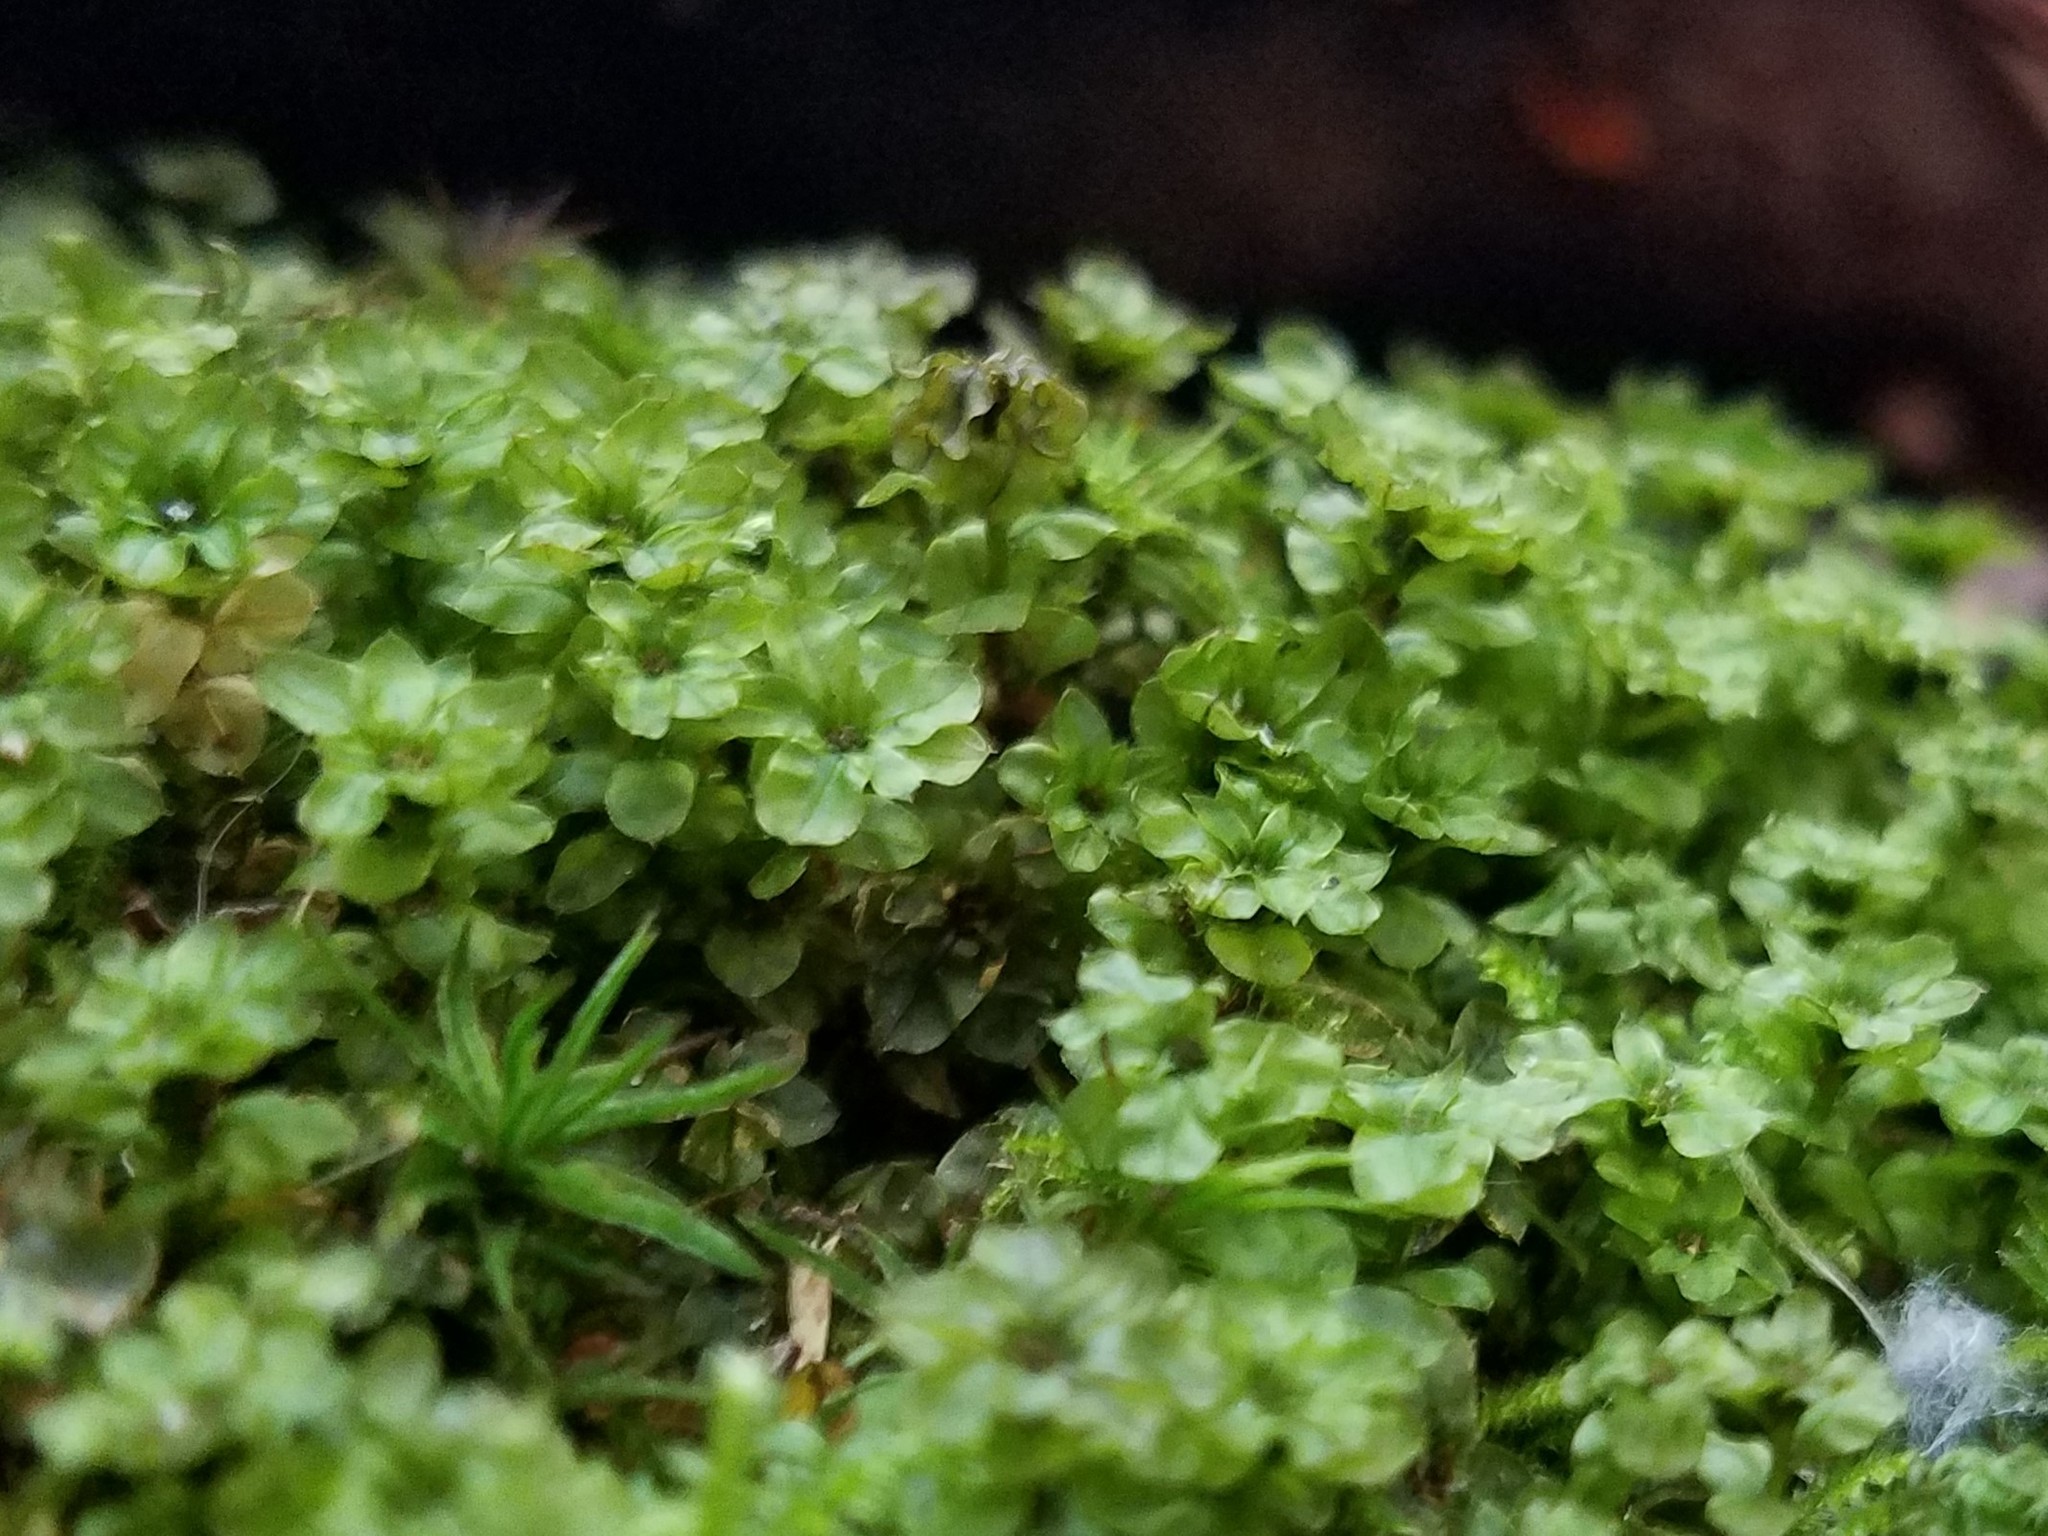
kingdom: Plantae
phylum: Bryophyta
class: Bryopsida
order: Bryales
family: Mniaceae
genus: Rhizomnium
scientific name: Rhizomnium punctatum
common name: Dotted leafy moss
